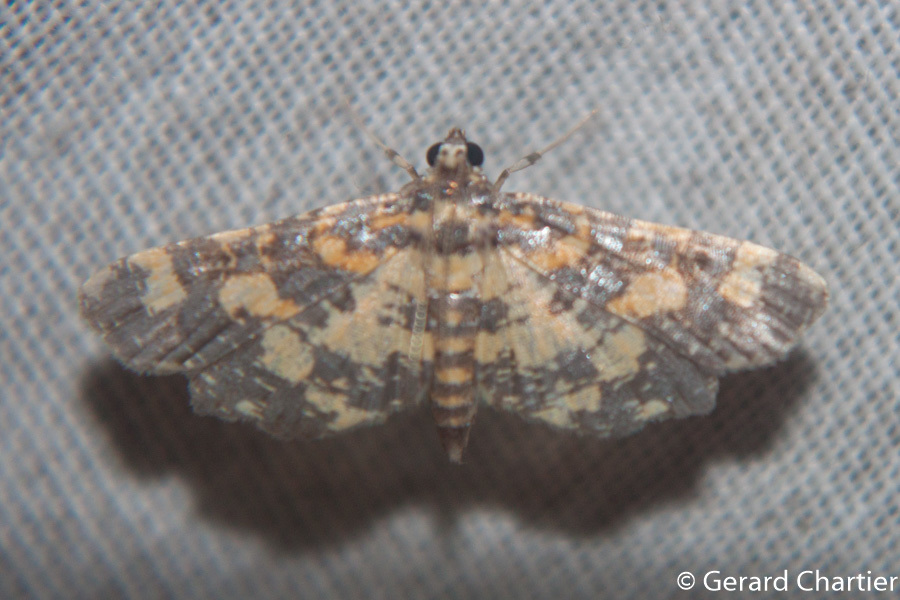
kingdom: Animalia
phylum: Arthropoda
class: Insecta
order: Lepidoptera
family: Crambidae
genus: Eurrhyparodes
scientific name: Eurrhyparodes tricoloralis
